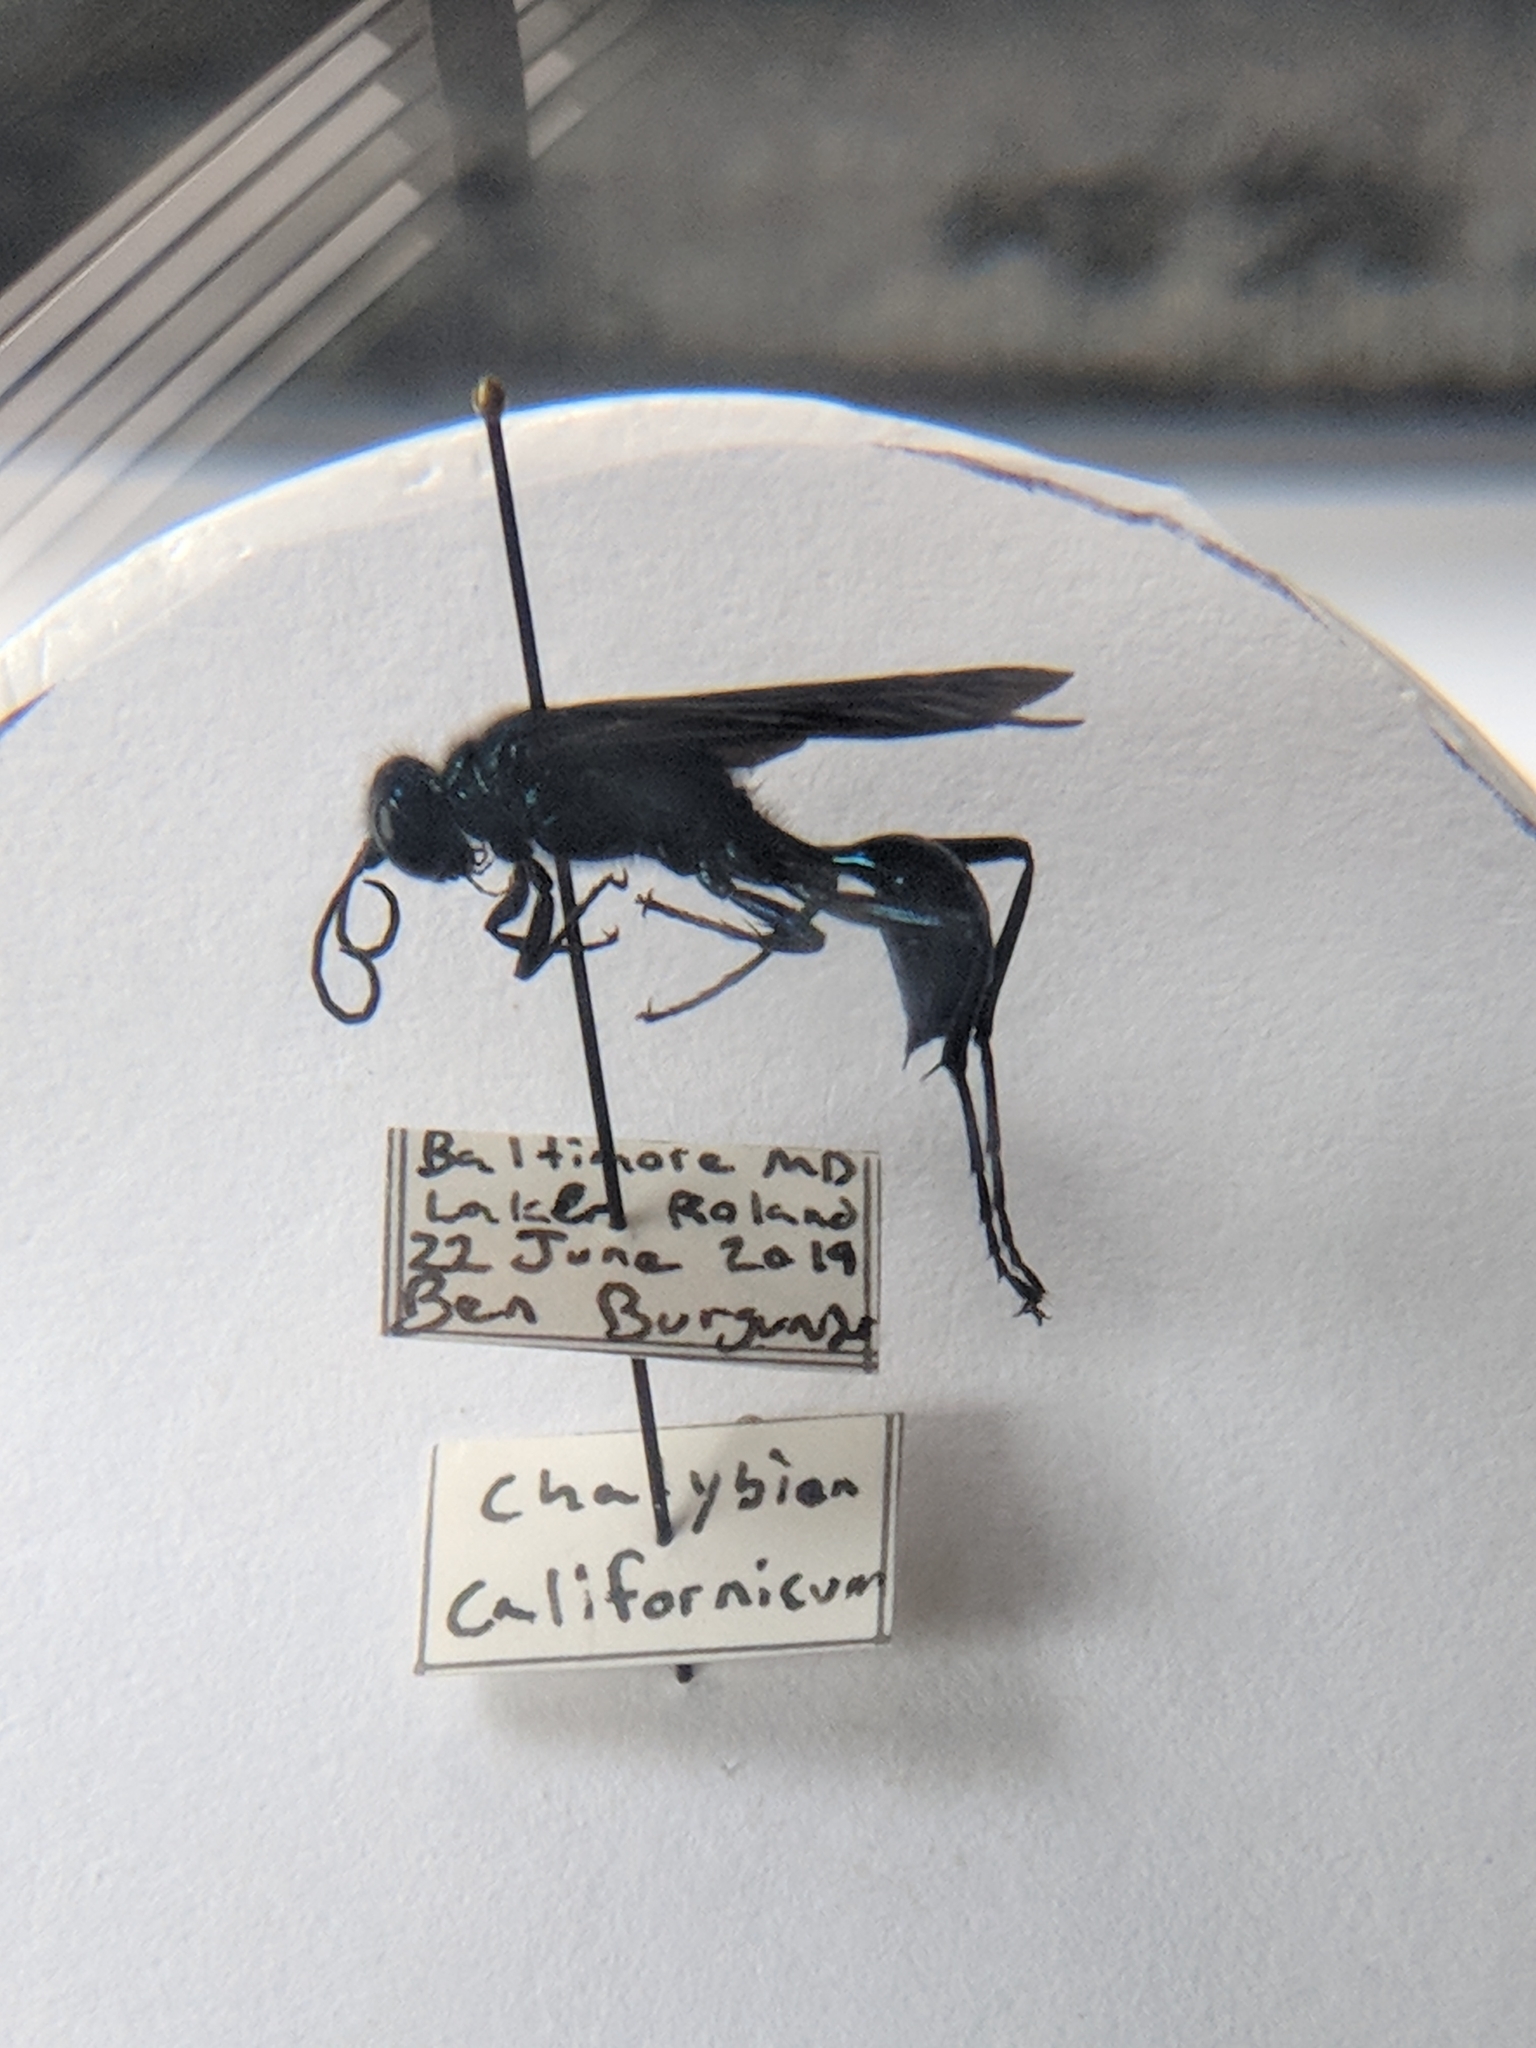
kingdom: Animalia
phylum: Arthropoda
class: Insecta
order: Hymenoptera
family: Sphecidae
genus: Chalybion
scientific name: Chalybion californicum
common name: Mud dauber
